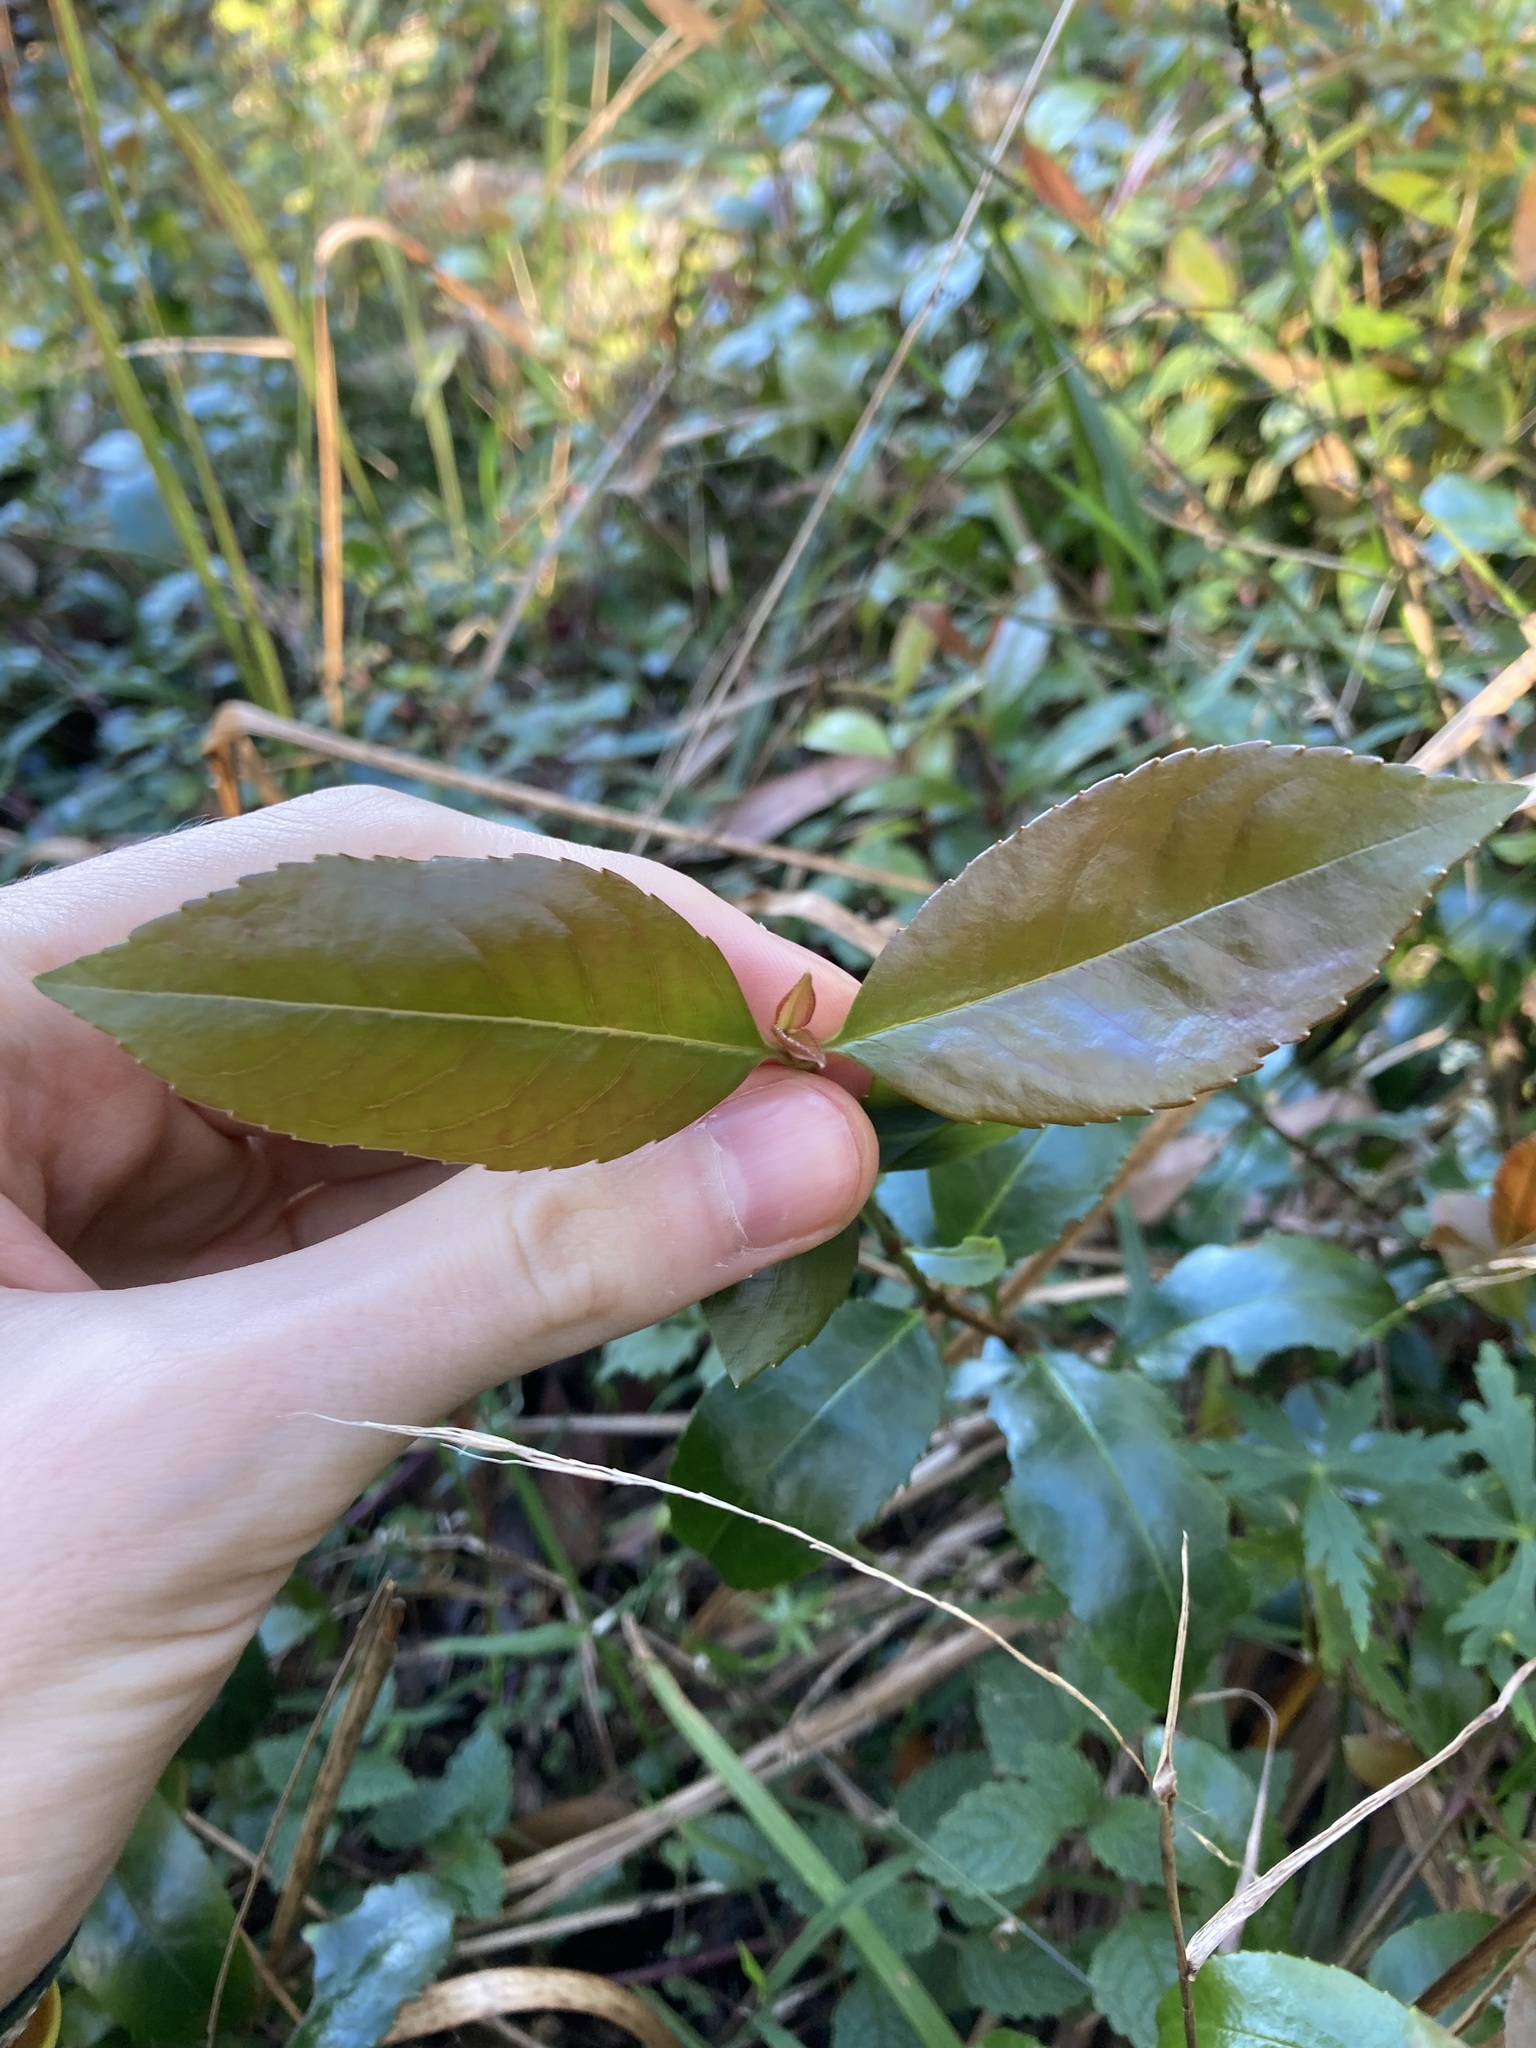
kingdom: Plantae
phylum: Tracheophyta
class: Magnoliopsida
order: Saxifragales
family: Aphanopetalaceae
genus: Aphanopetalum
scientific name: Aphanopetalum resinosum
